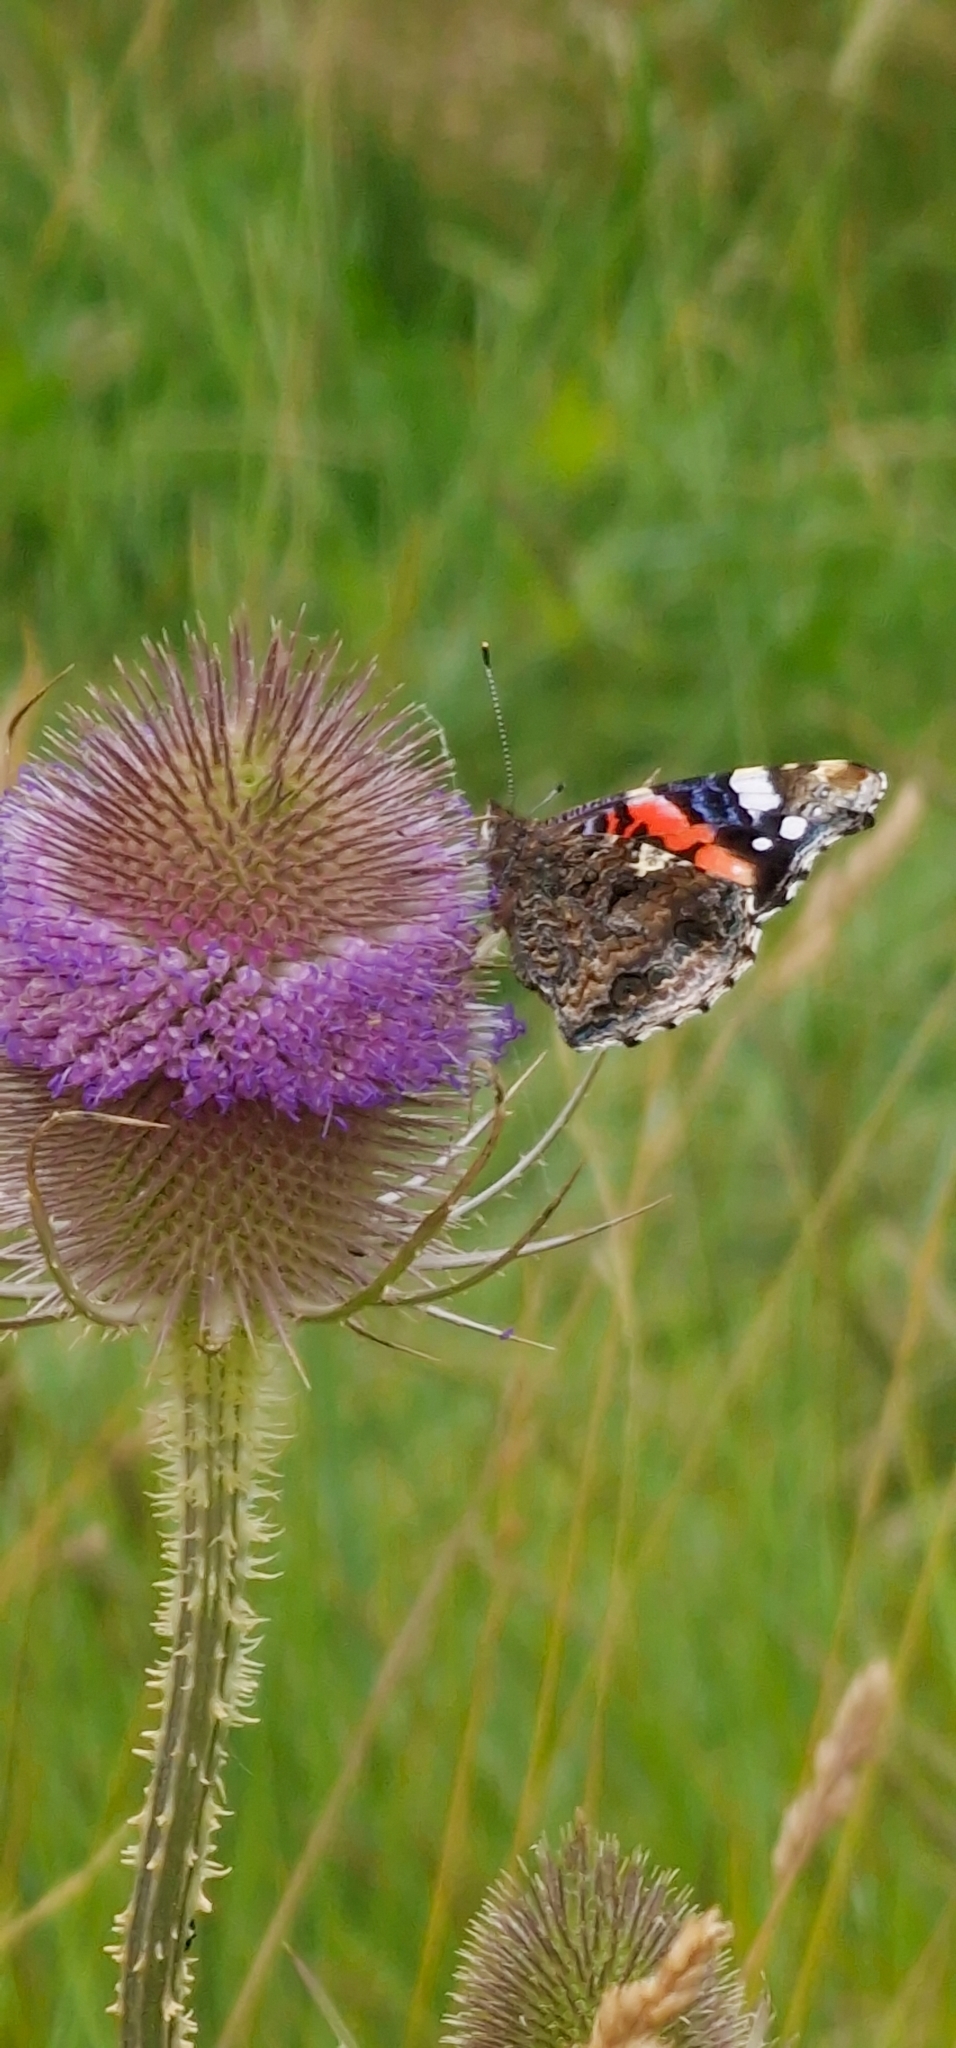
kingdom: Animalia
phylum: Arthropoda
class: Insecta
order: Lepidoptera
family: Nymphalidae
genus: Vanessa
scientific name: Vanessa atalanta
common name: Red admiral
